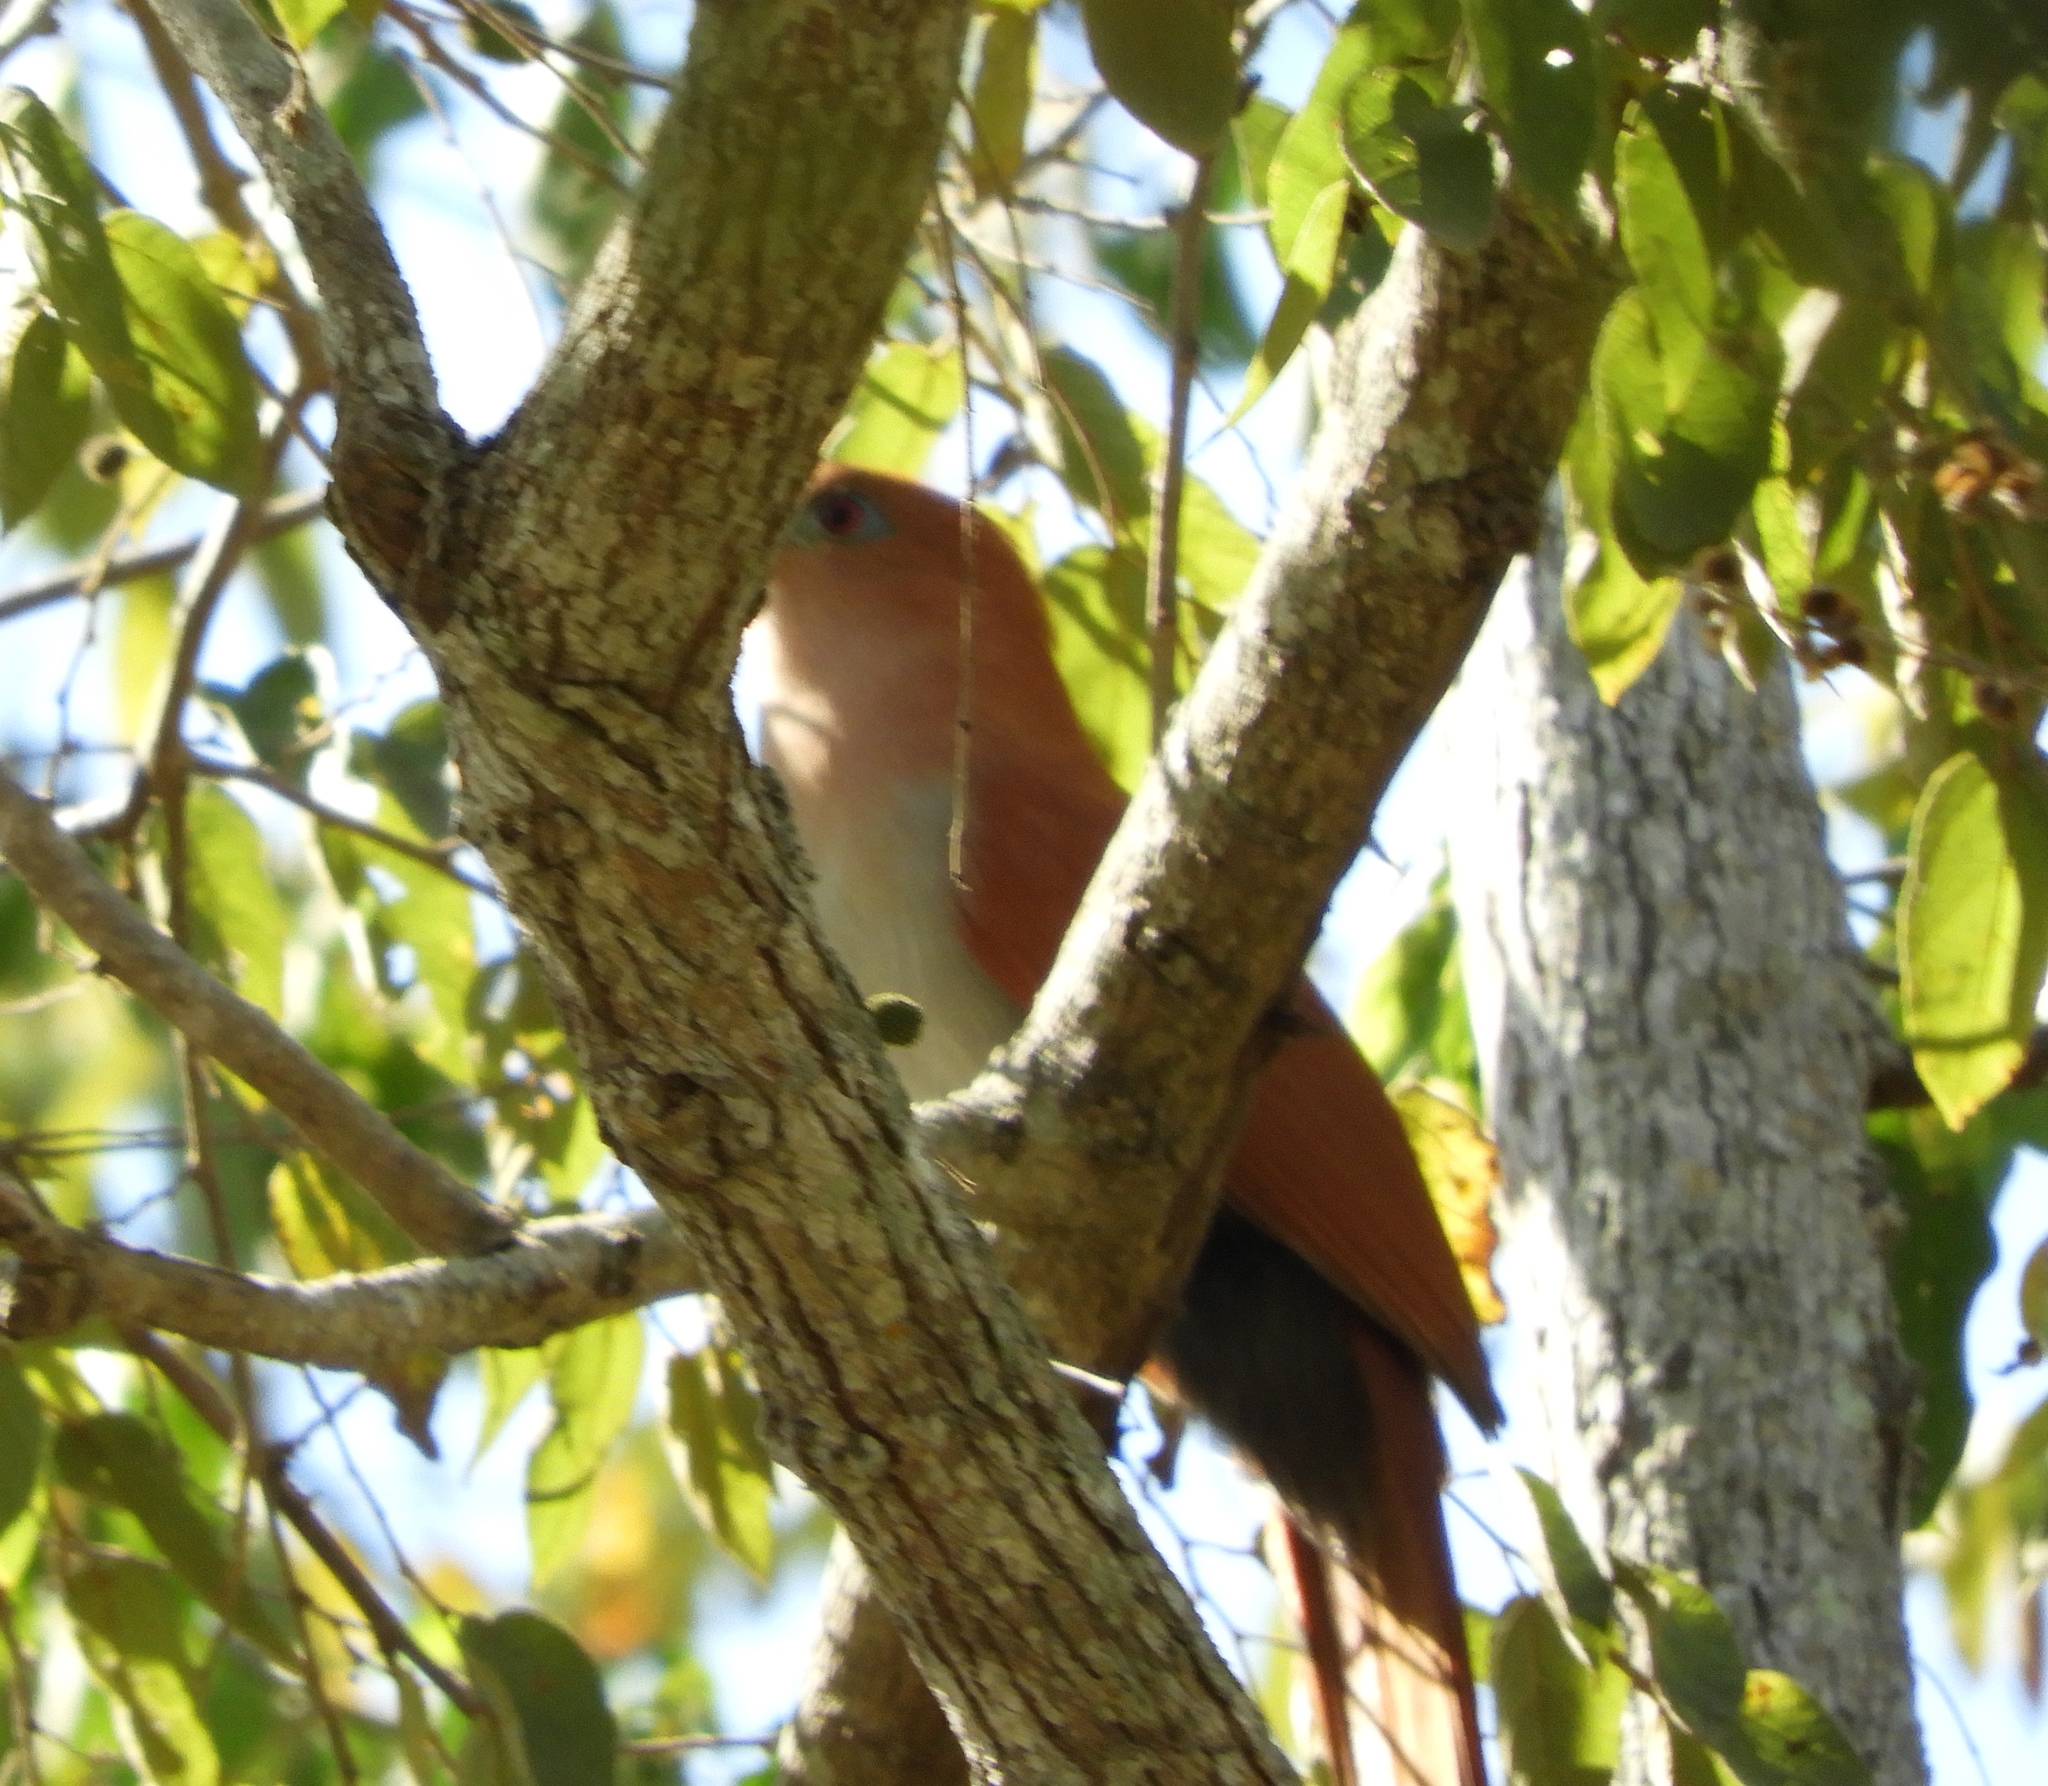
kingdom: Animalia
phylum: Chordata
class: Aves
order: Cuculiformes
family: Cuculidae
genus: Piaya
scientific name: Piaya cayana
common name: Squirrel cuckoo
